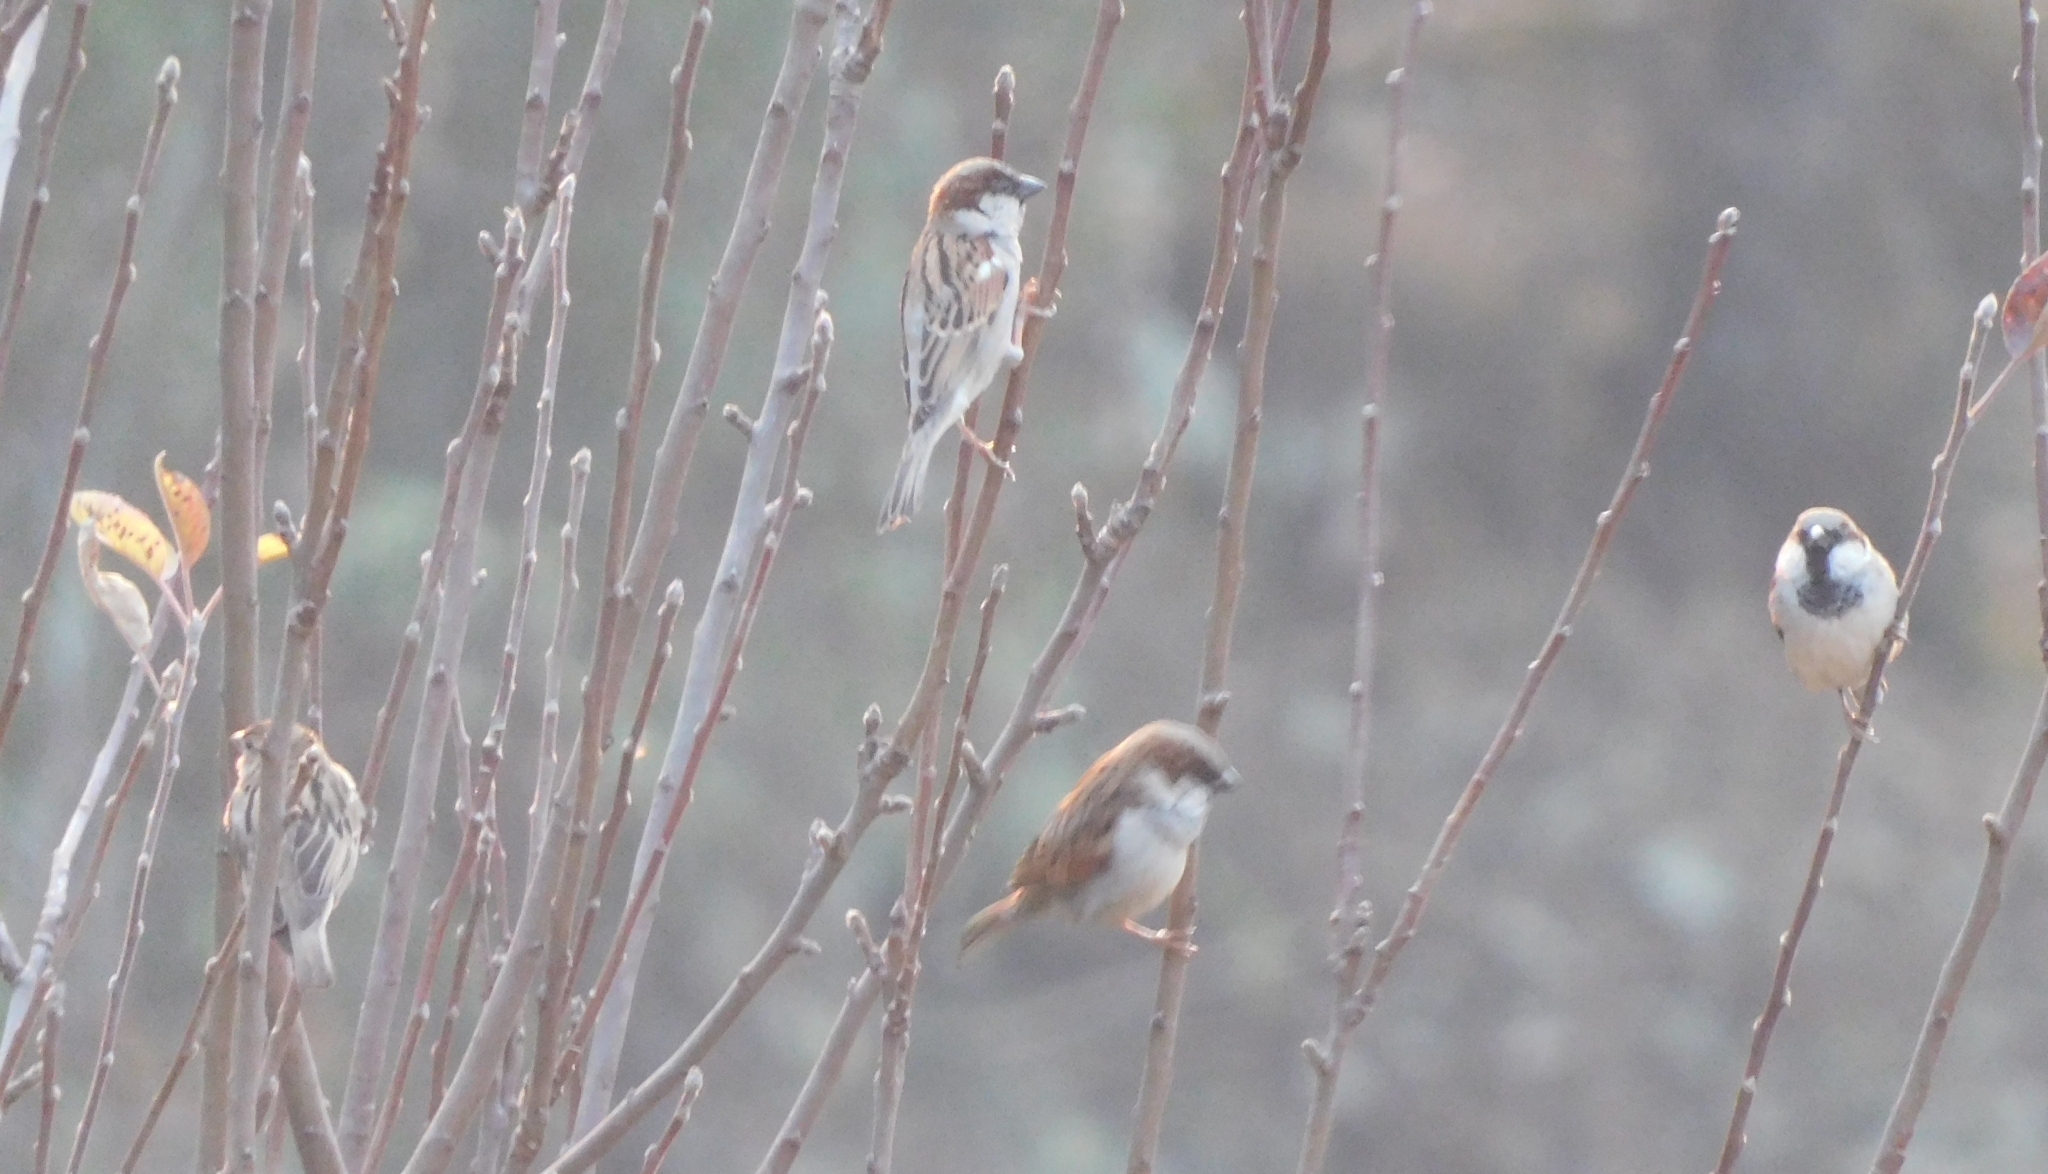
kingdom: Animalia
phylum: Chordata
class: Aves
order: Passeriformes
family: Passeridae
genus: Passer
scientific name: Passer domesticus
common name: House sparrow
